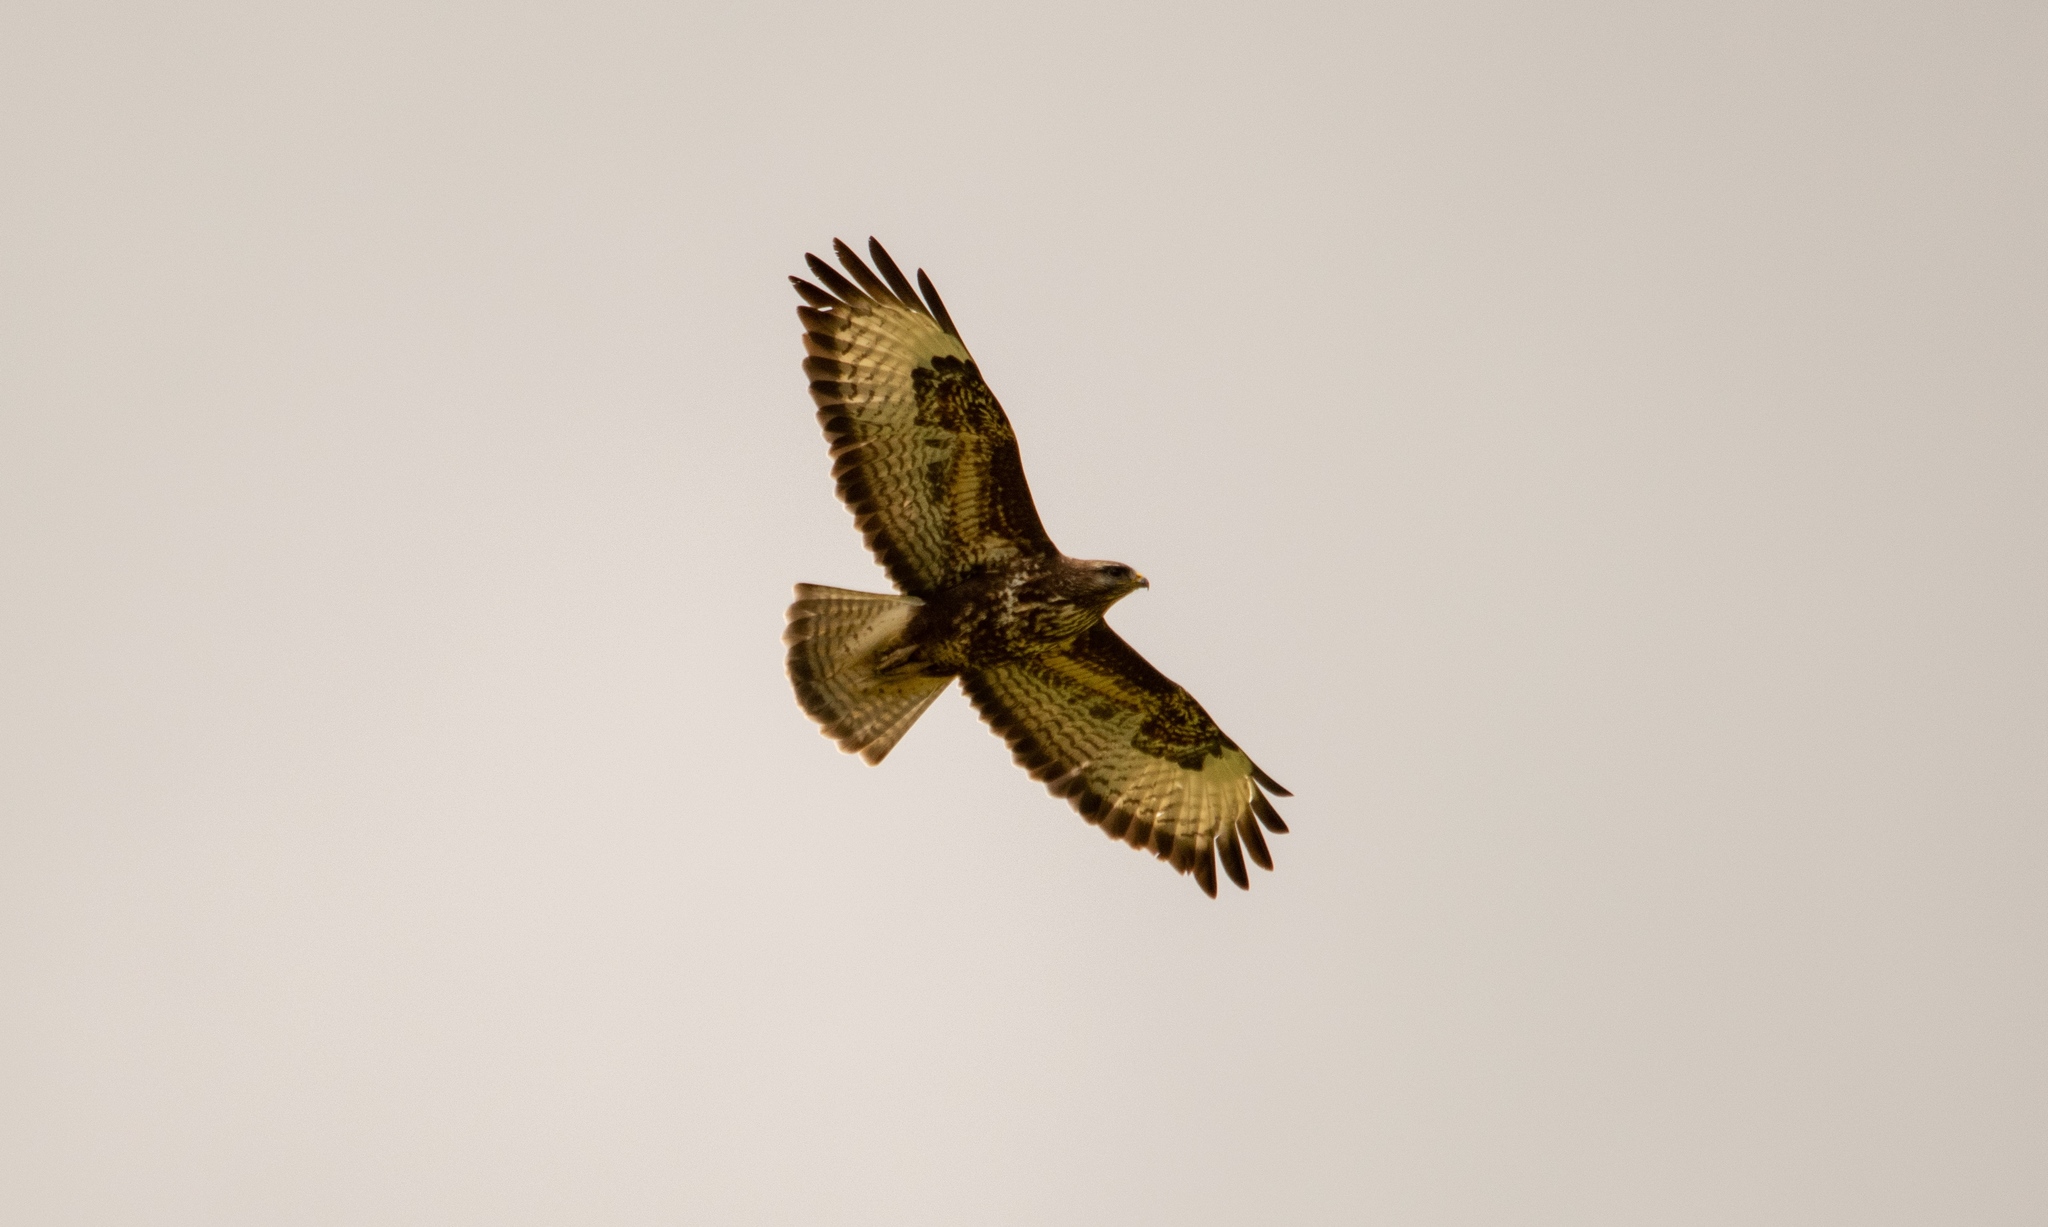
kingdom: Animalia
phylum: Chordata
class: Aves
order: Accipitriformes
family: Accipitridae
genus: Buteo
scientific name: Buteo buteo
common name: Common buzzard
